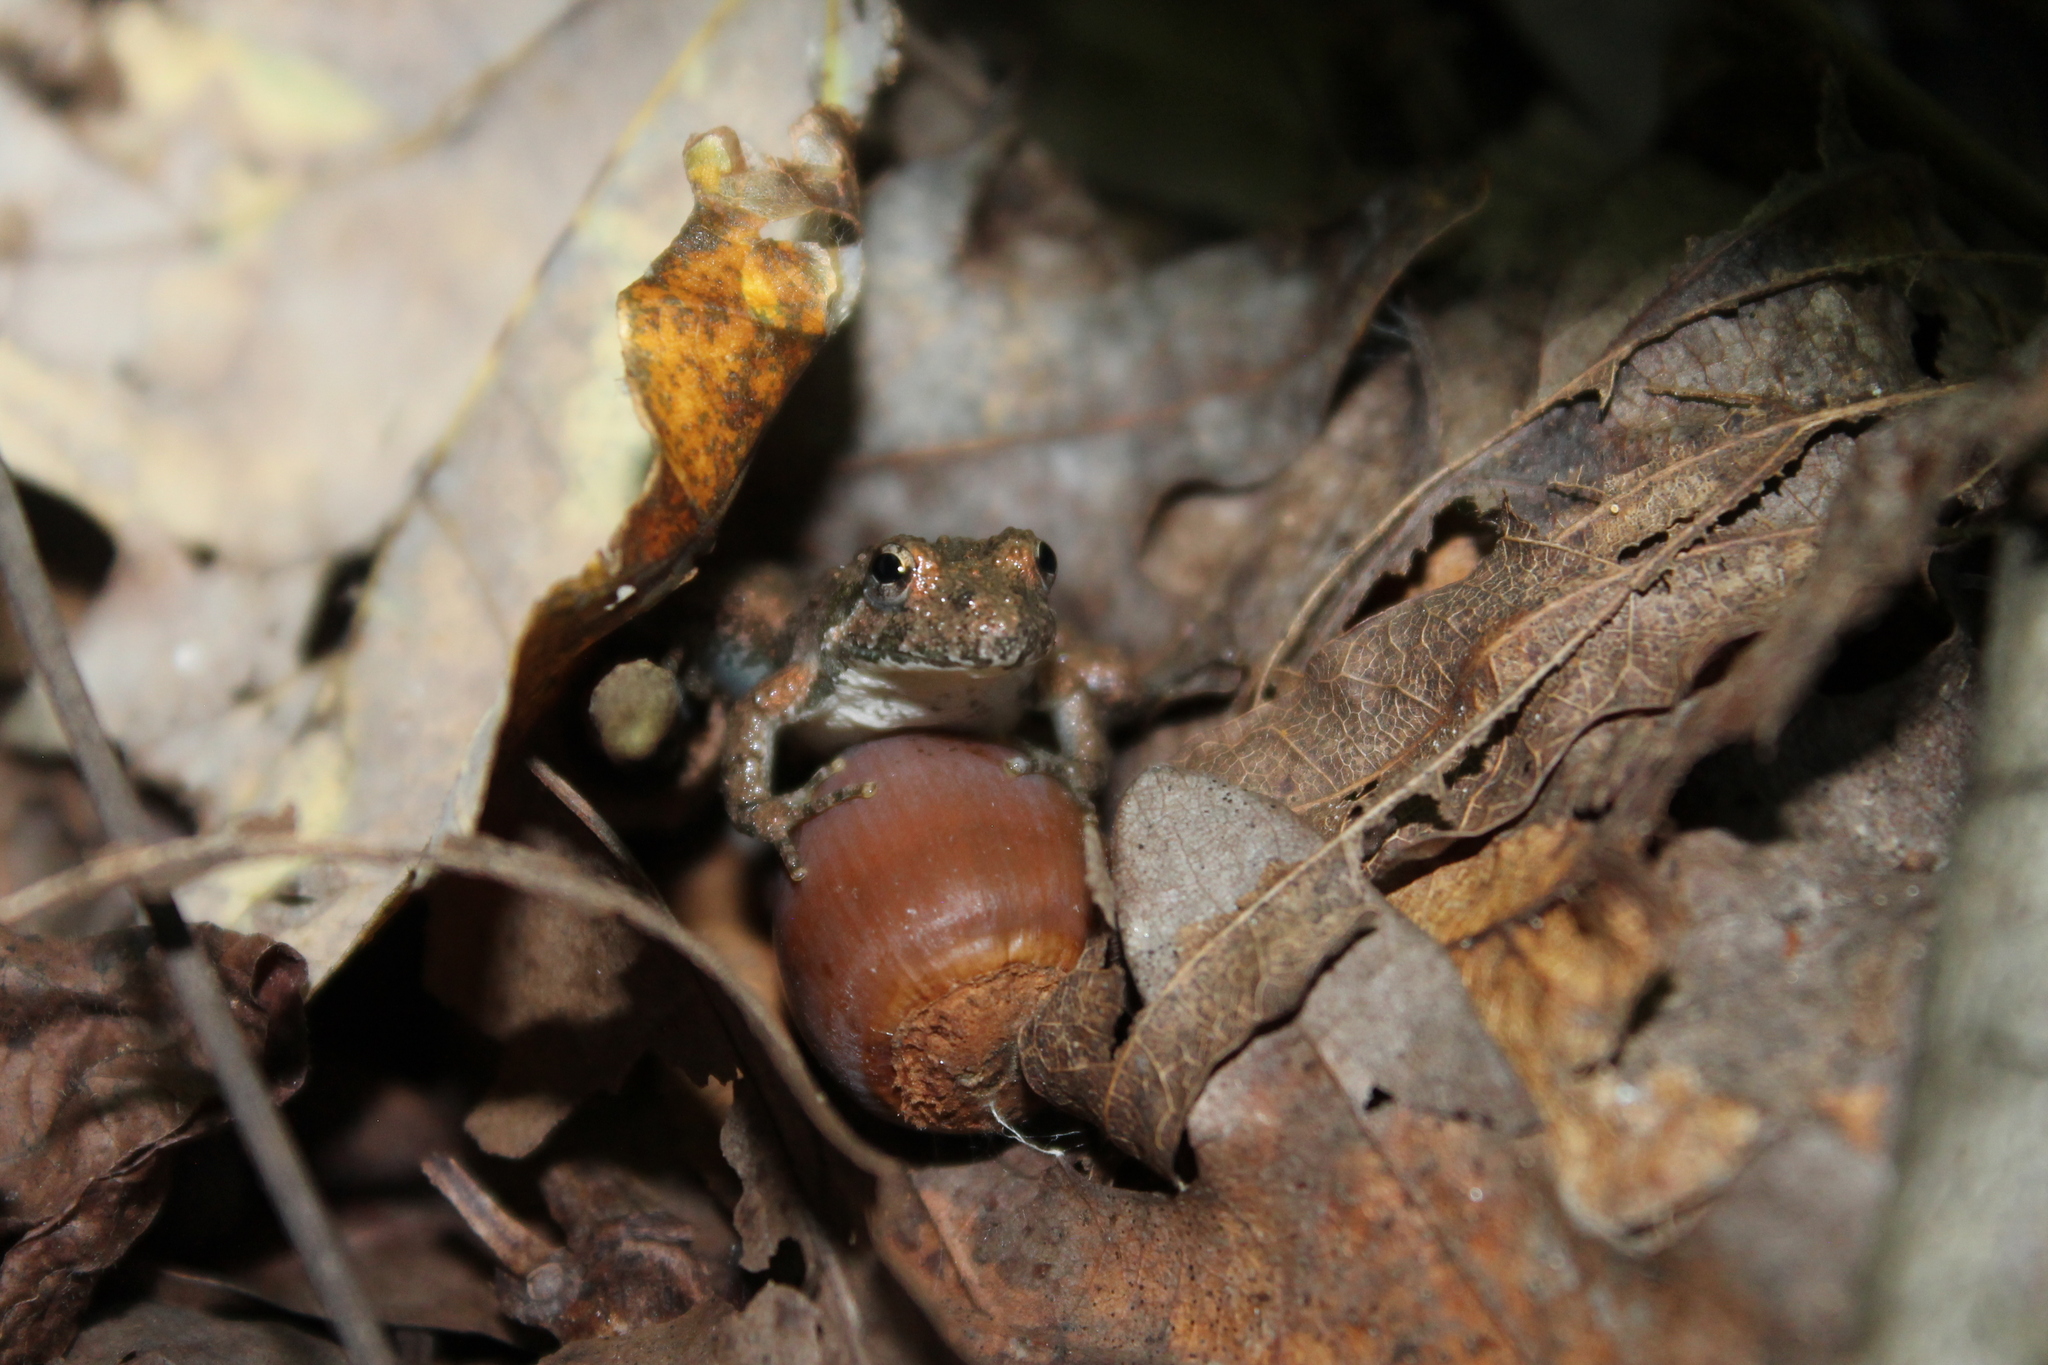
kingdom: Animalia
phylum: Chordata
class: Amphibia
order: Anura
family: Hylidae
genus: Acris
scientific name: Acris crepitans
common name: Northern cricket frog
